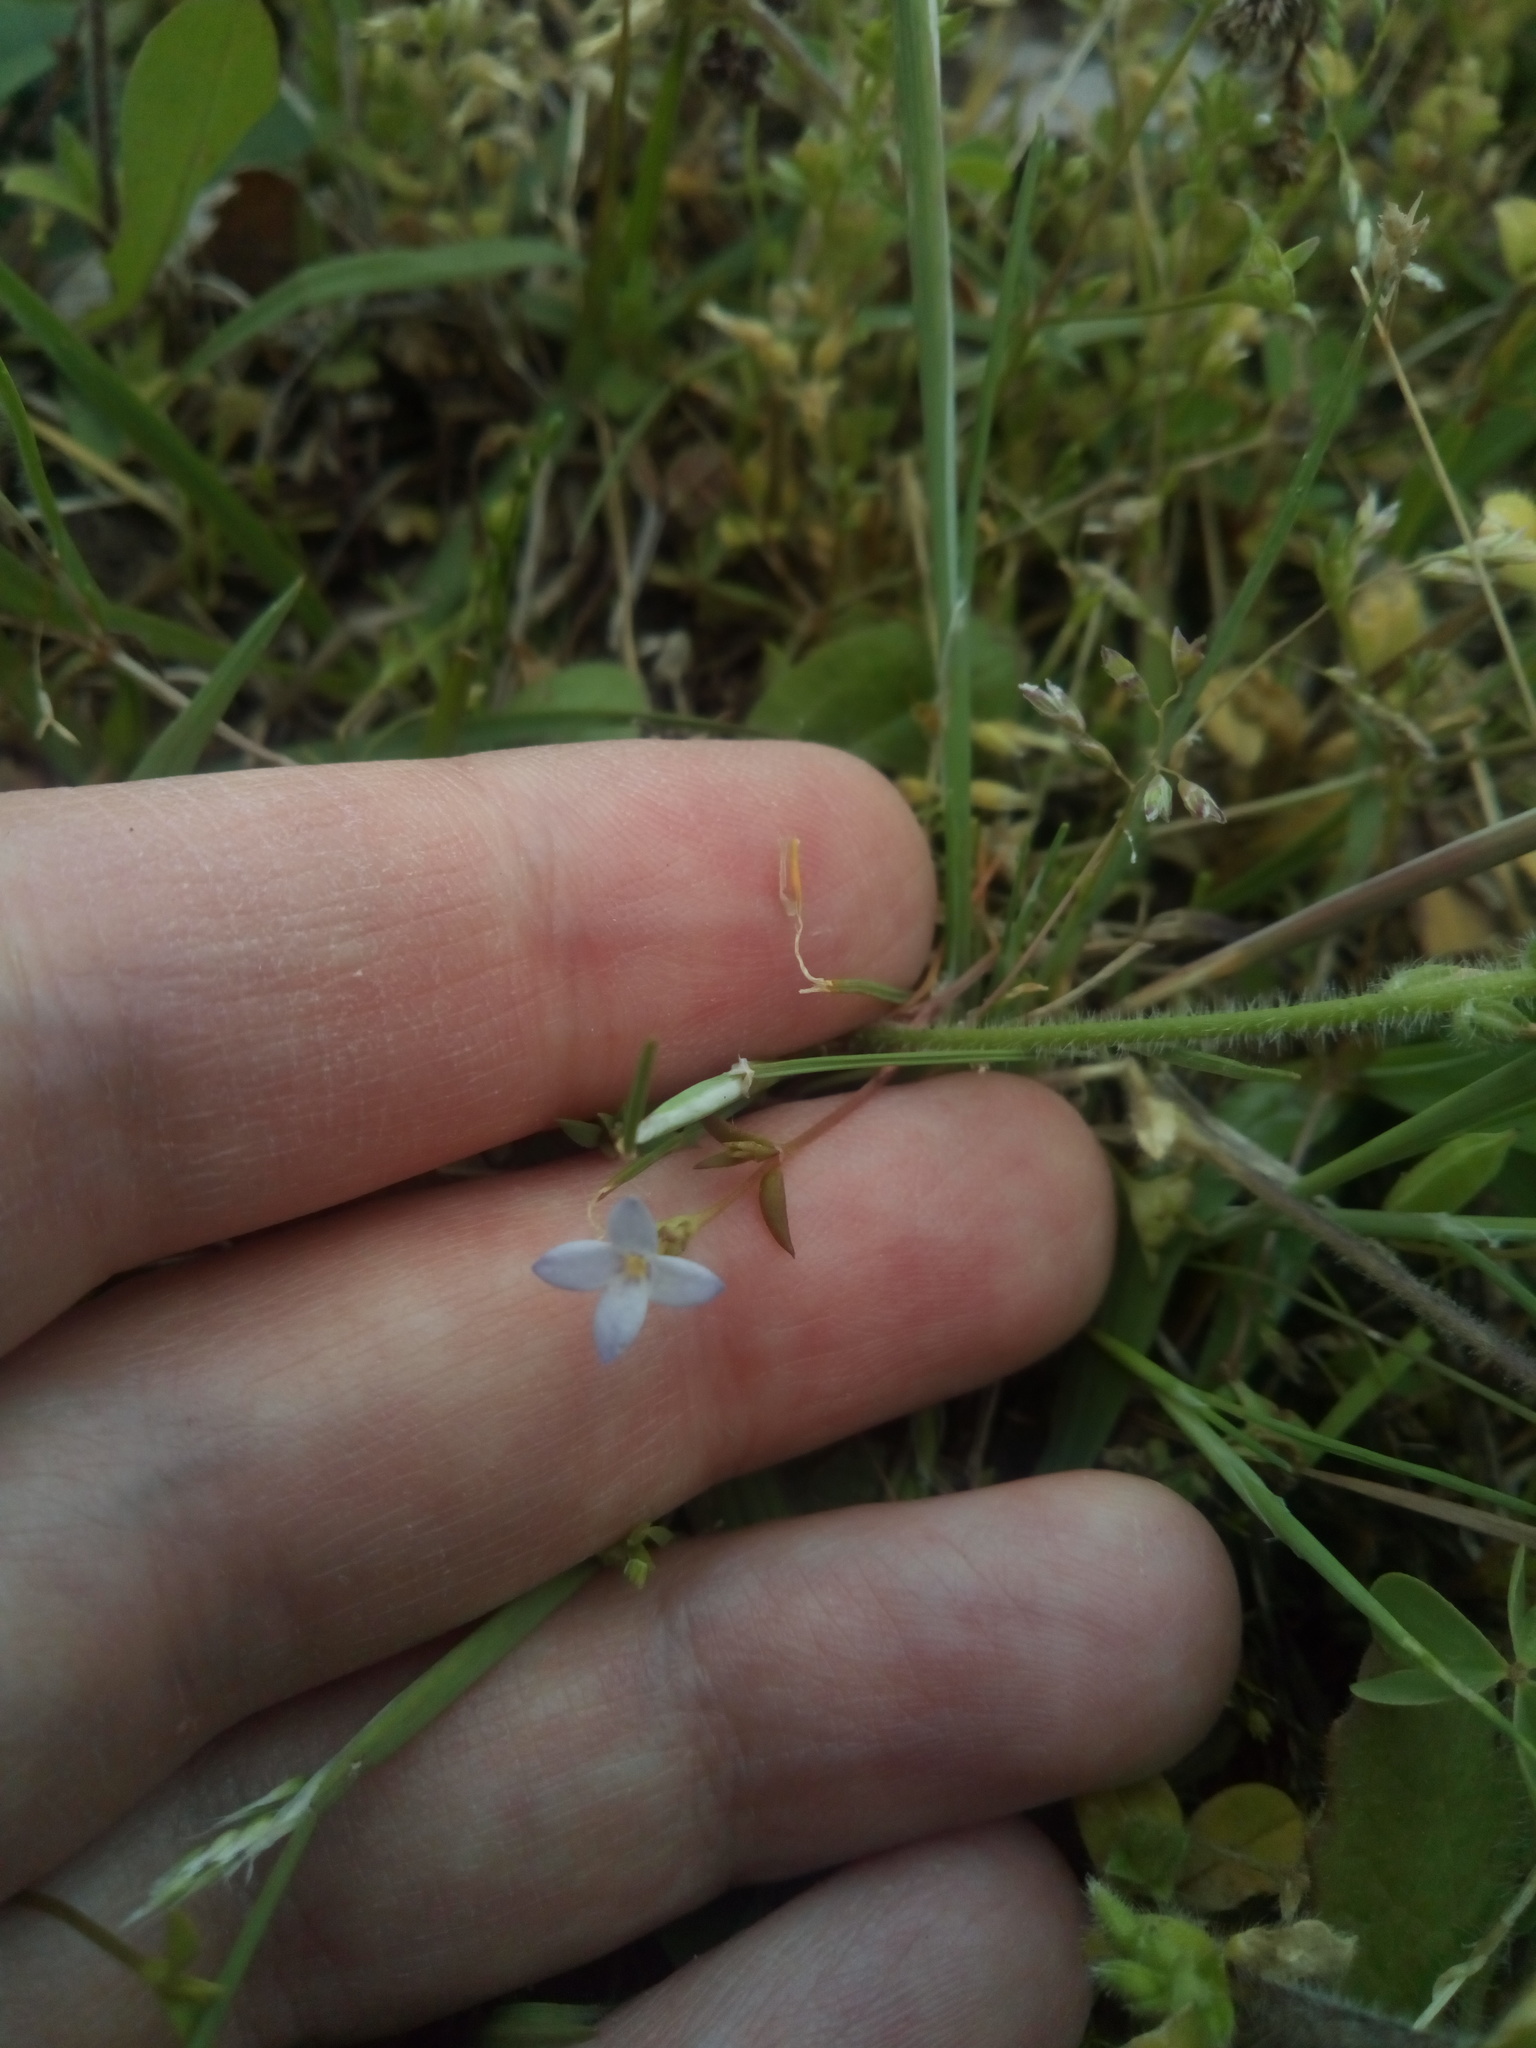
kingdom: Plantae
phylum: Tracheophyta
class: Magnoliopsida
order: Gentianales
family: Rubiaceae
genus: Houstonia
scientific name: Houstonia pusilla
